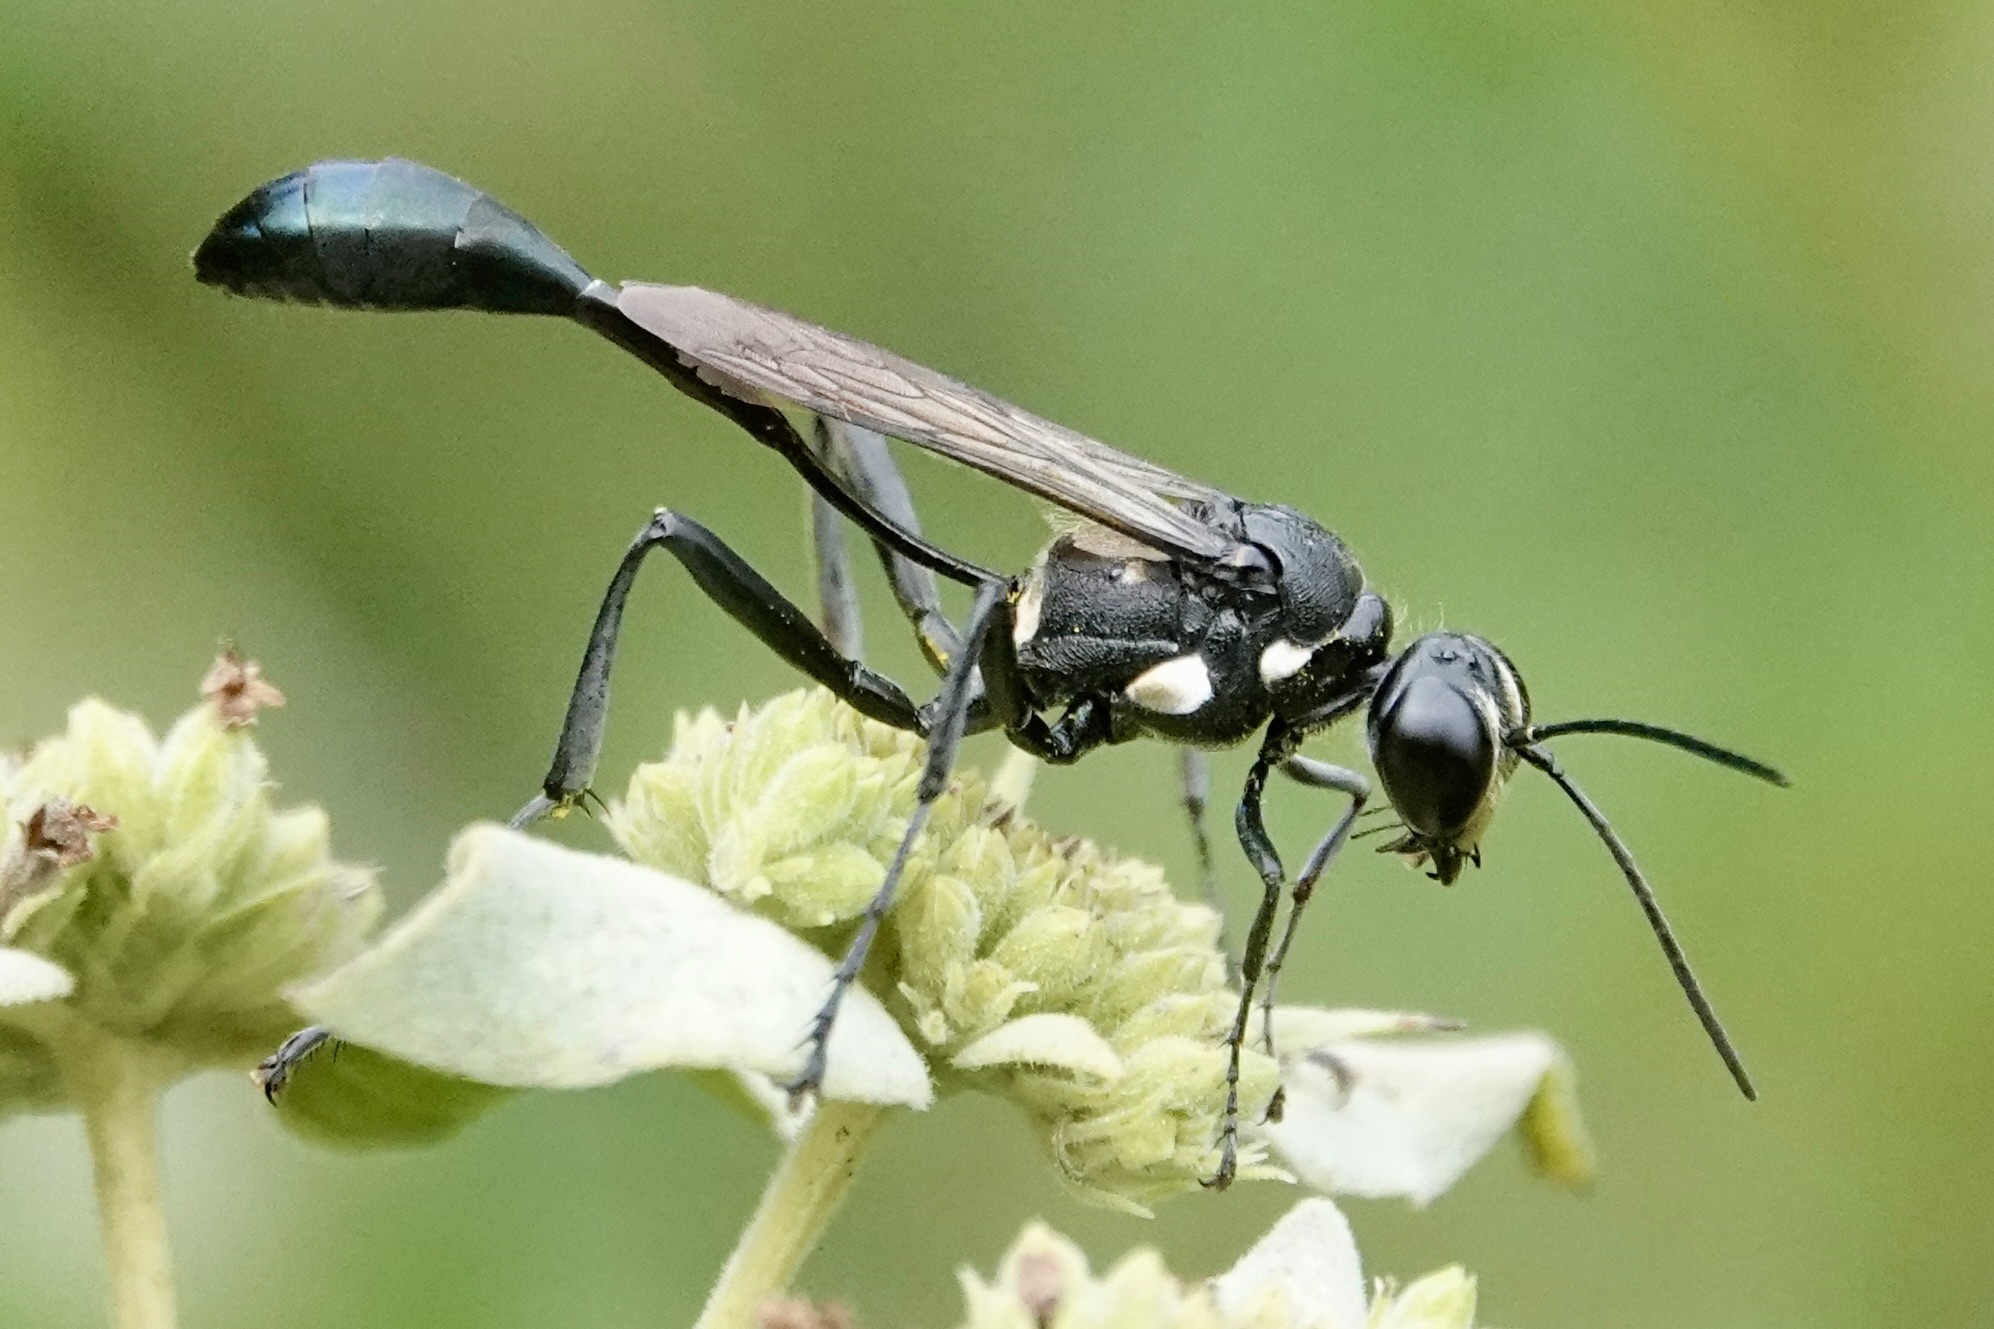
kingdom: Animalia
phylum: Arthropoda
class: Insecta
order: Hymenoptera
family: Sphecidae
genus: Eremnophila
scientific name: Eremnophila aureonotata
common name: Gold-marked thread-waisted wasp
